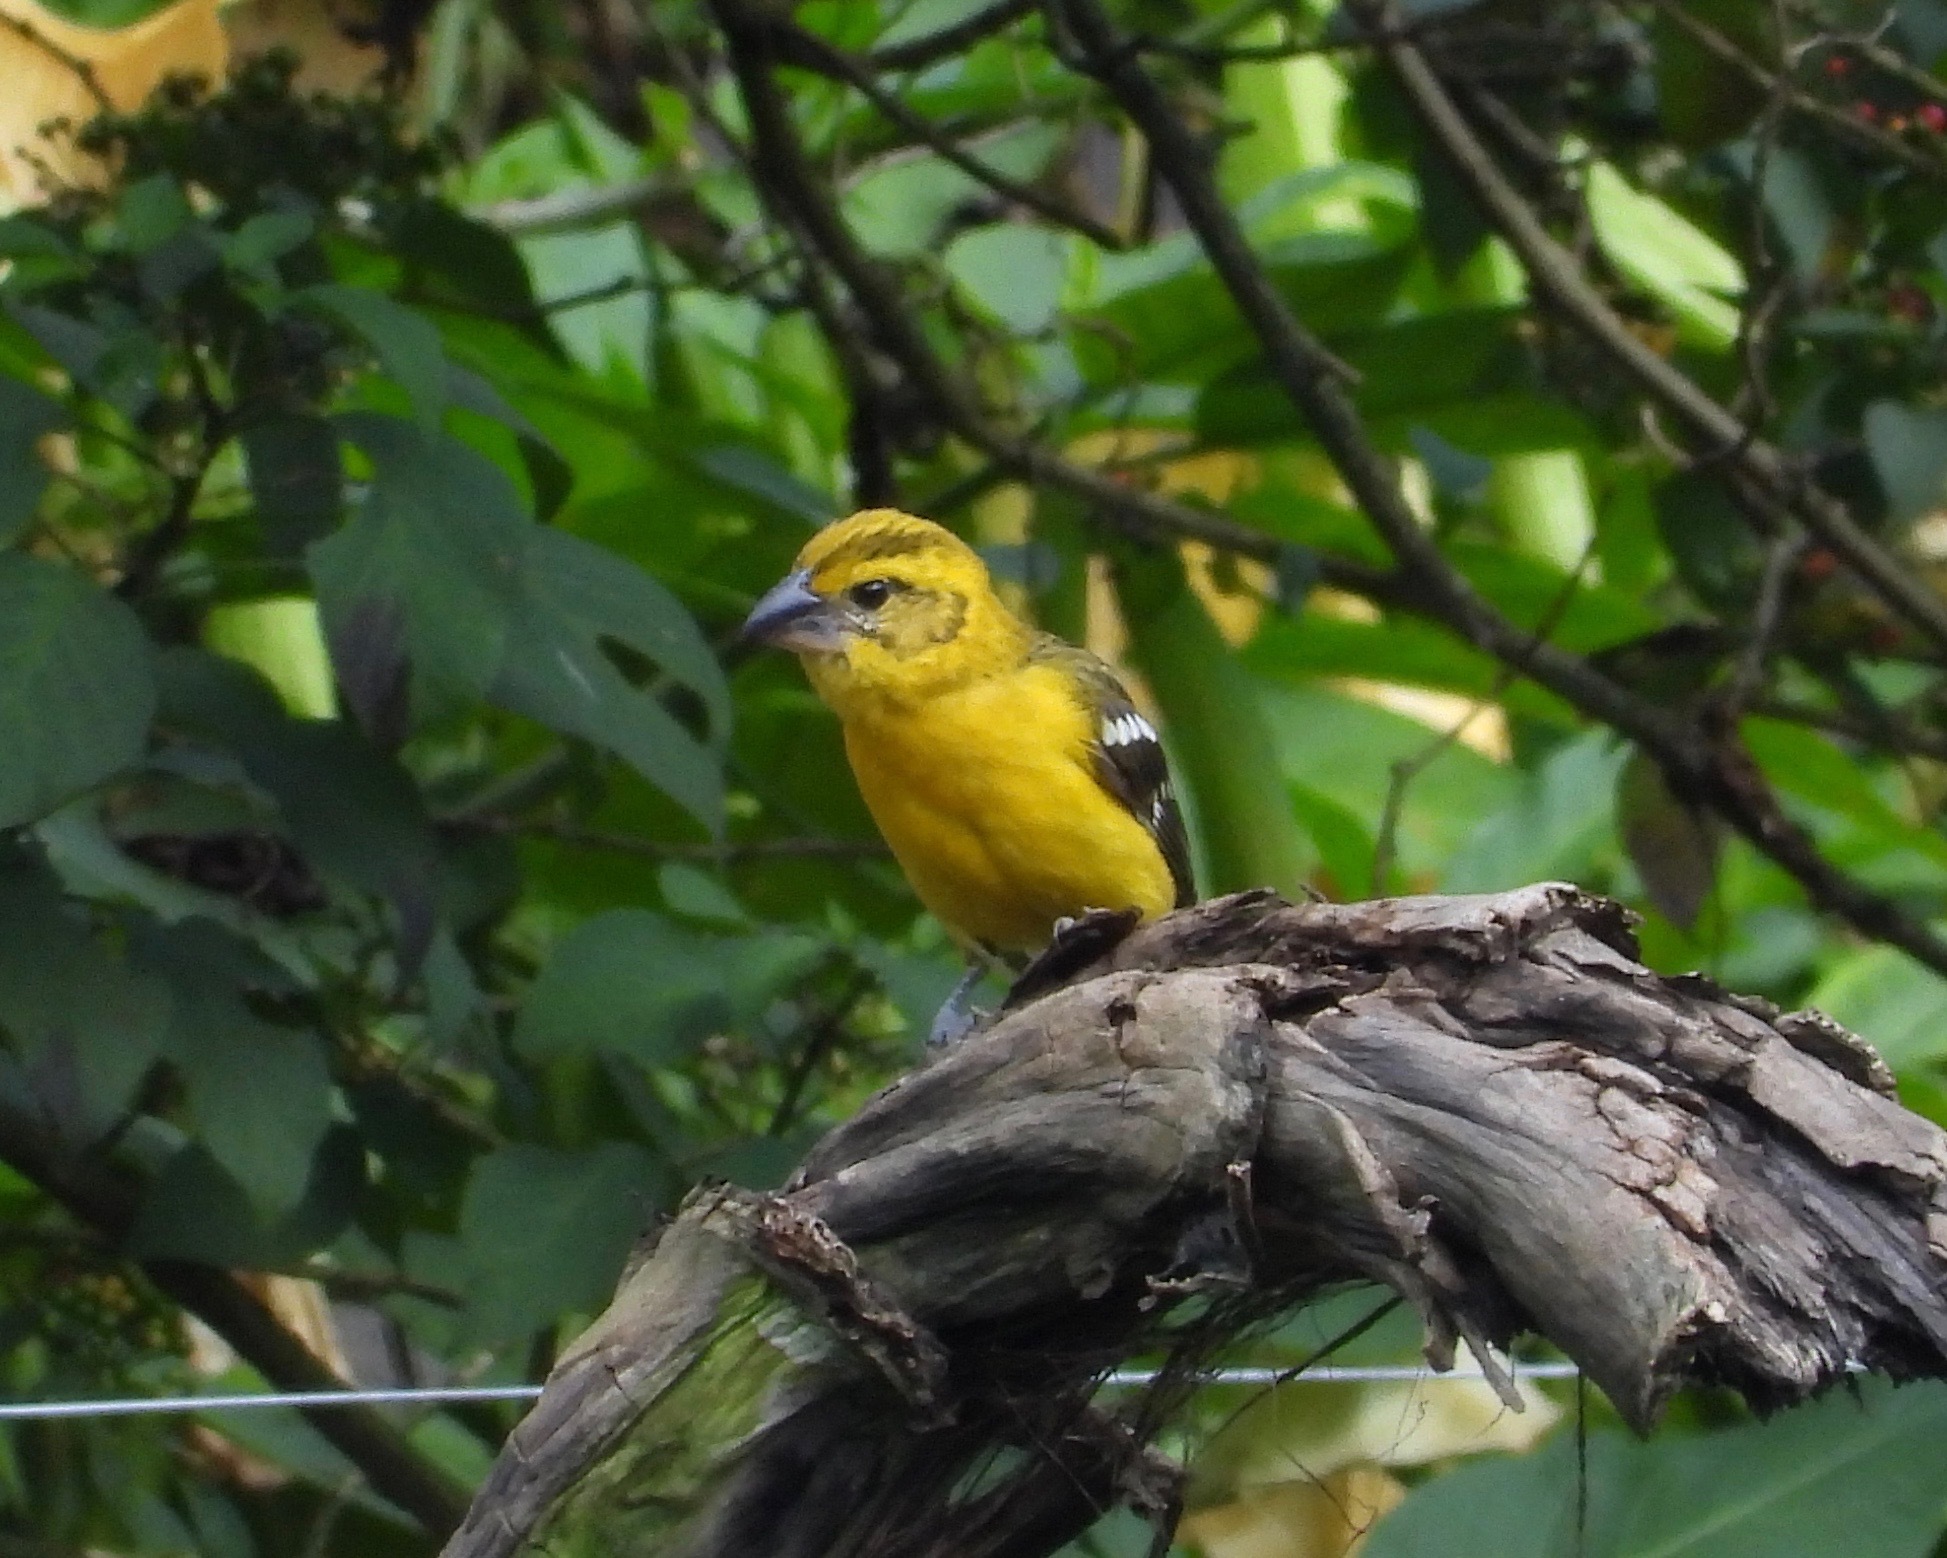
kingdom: Animalia
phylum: Chordata
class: Aves
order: Passeriformes
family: Cardinalidae
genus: Pheucticus
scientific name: Pheucticus chrysopeplus
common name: Yellow grosbeak
